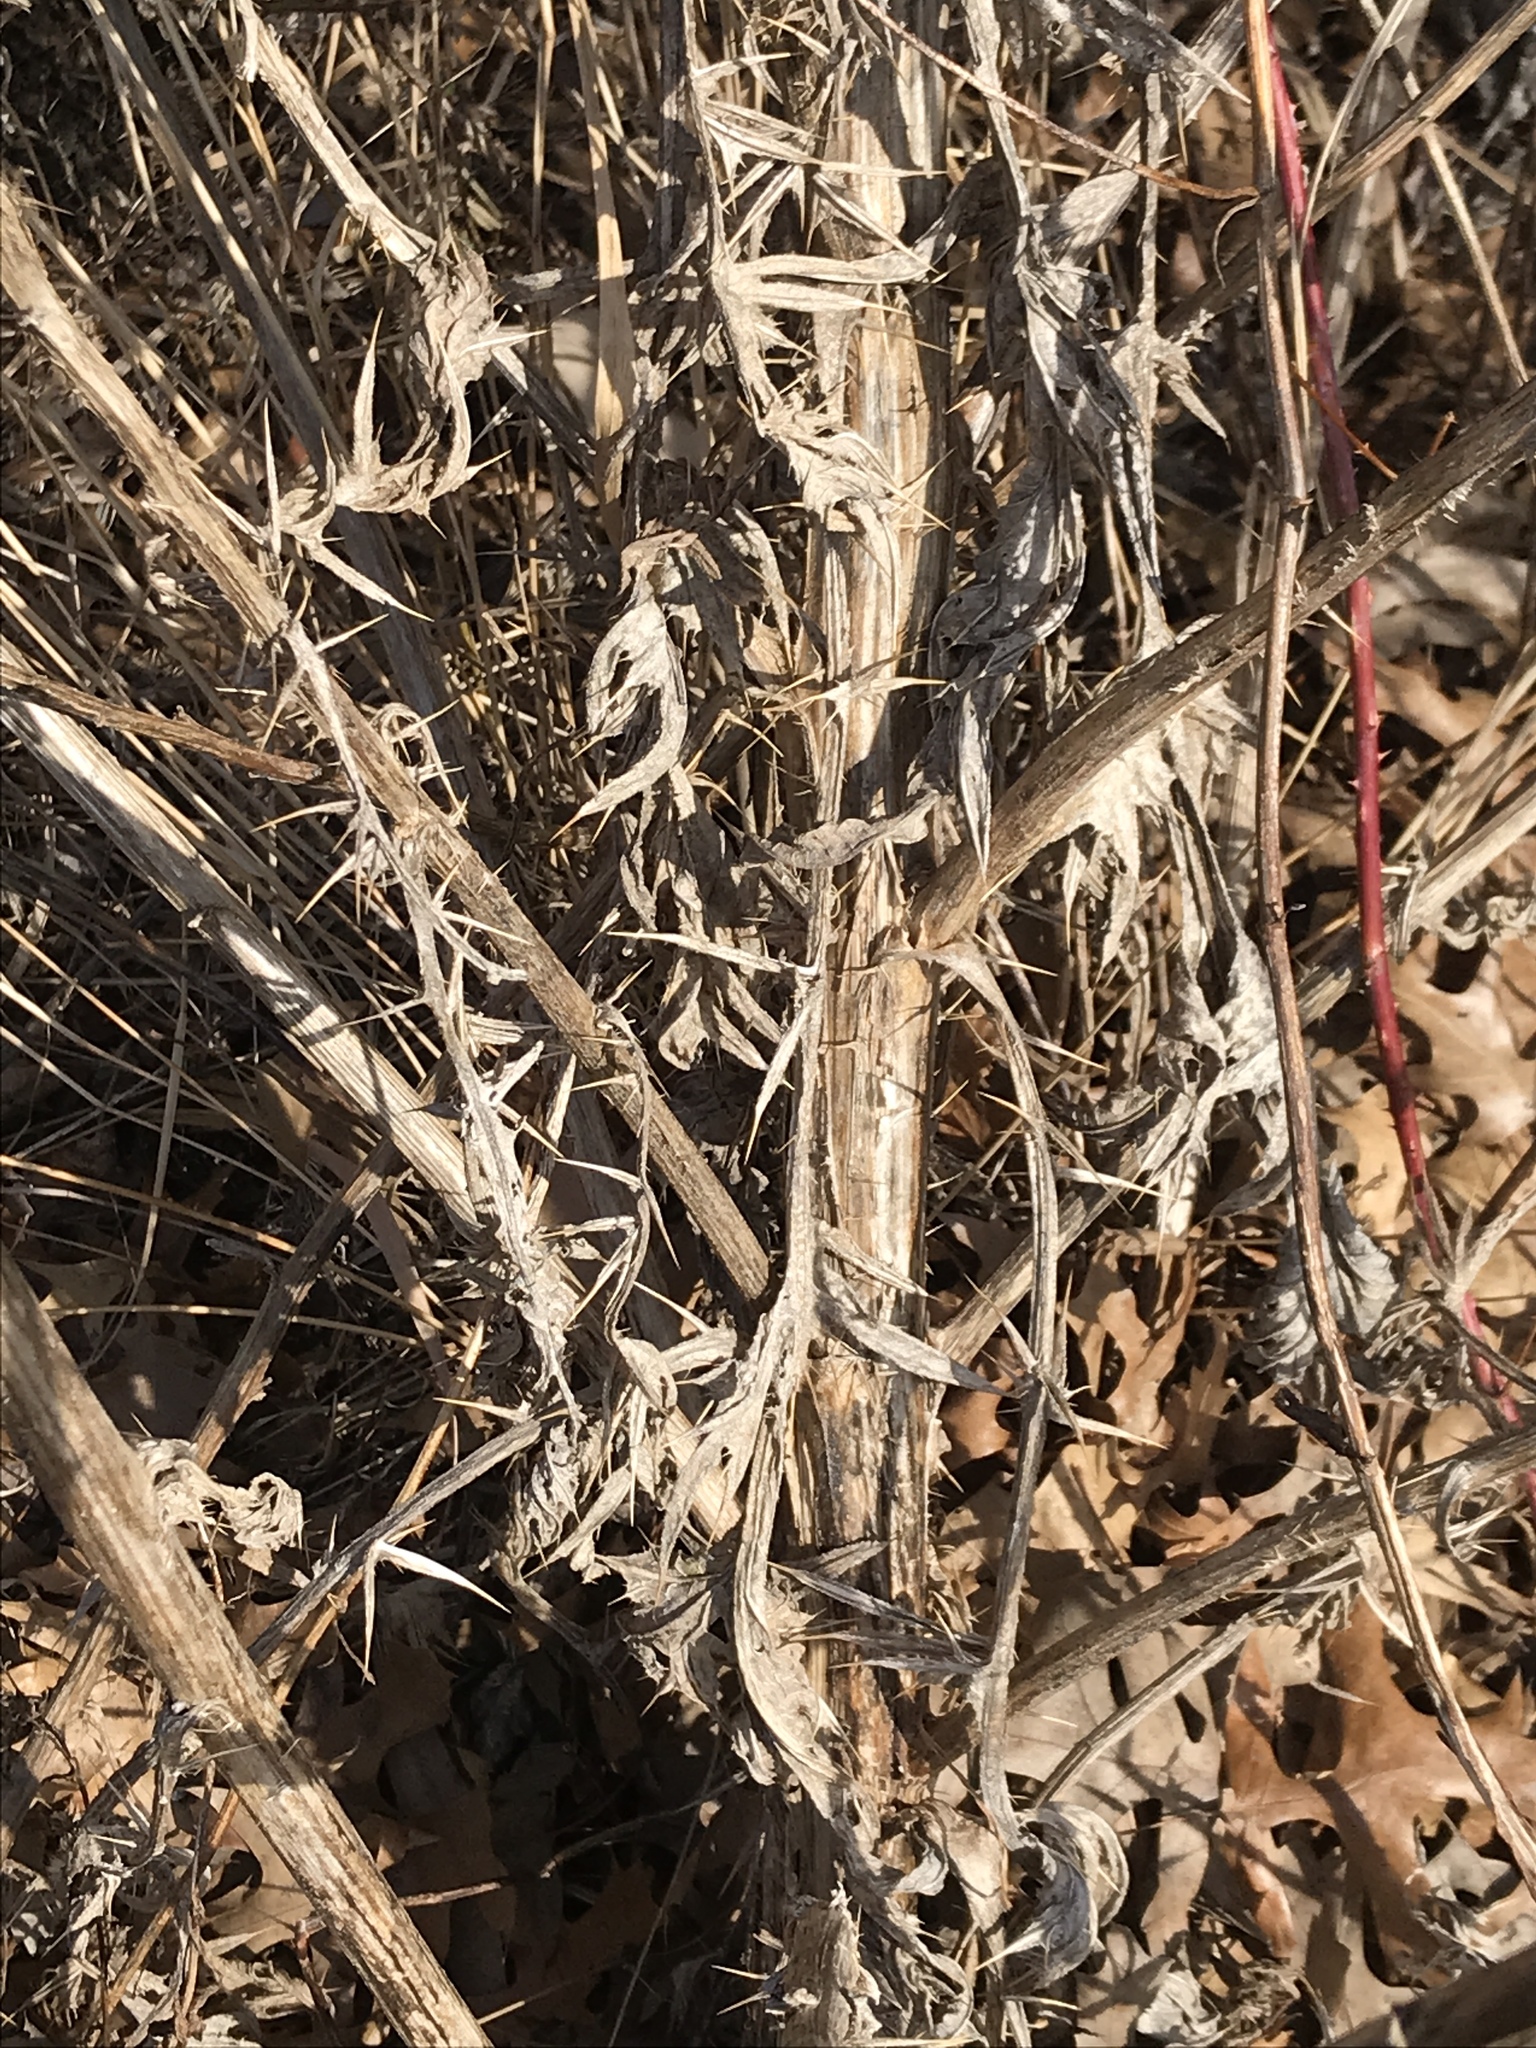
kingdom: Plantae
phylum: Tracheophyta
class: Magnoliopsida
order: Asterales
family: Asteraceae
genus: Cirsium
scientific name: Cirsium vulgare
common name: Bull thistle
